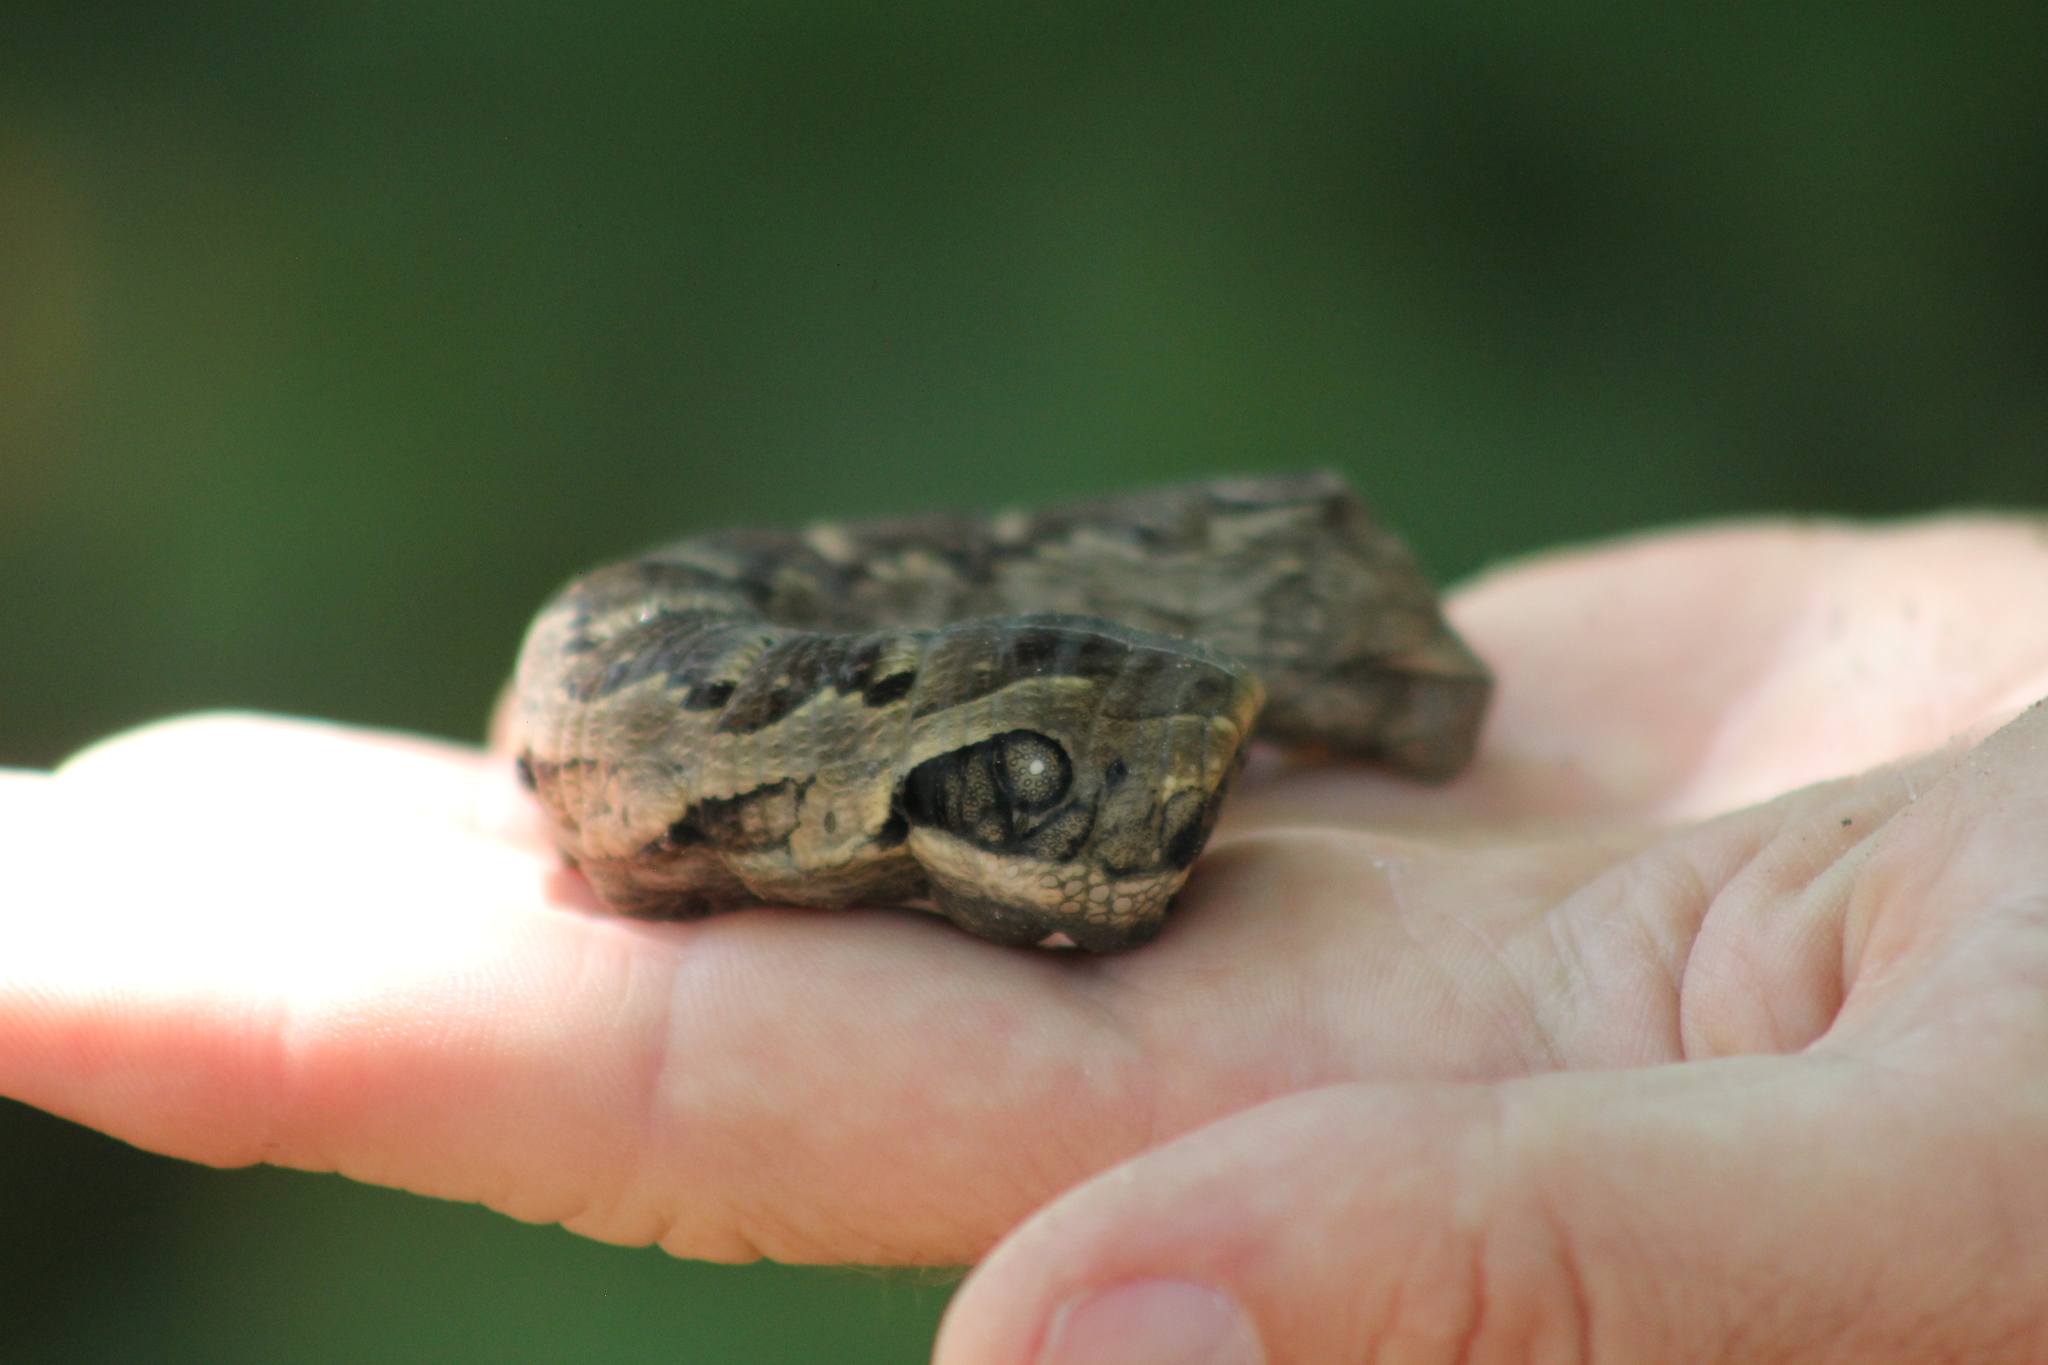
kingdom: Animalia
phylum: Arthropoda
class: Insecta
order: Lepidoptera
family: Sphingidae
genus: Eumorpha
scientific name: Eumorpha labruscae
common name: Gaudy sphinx
